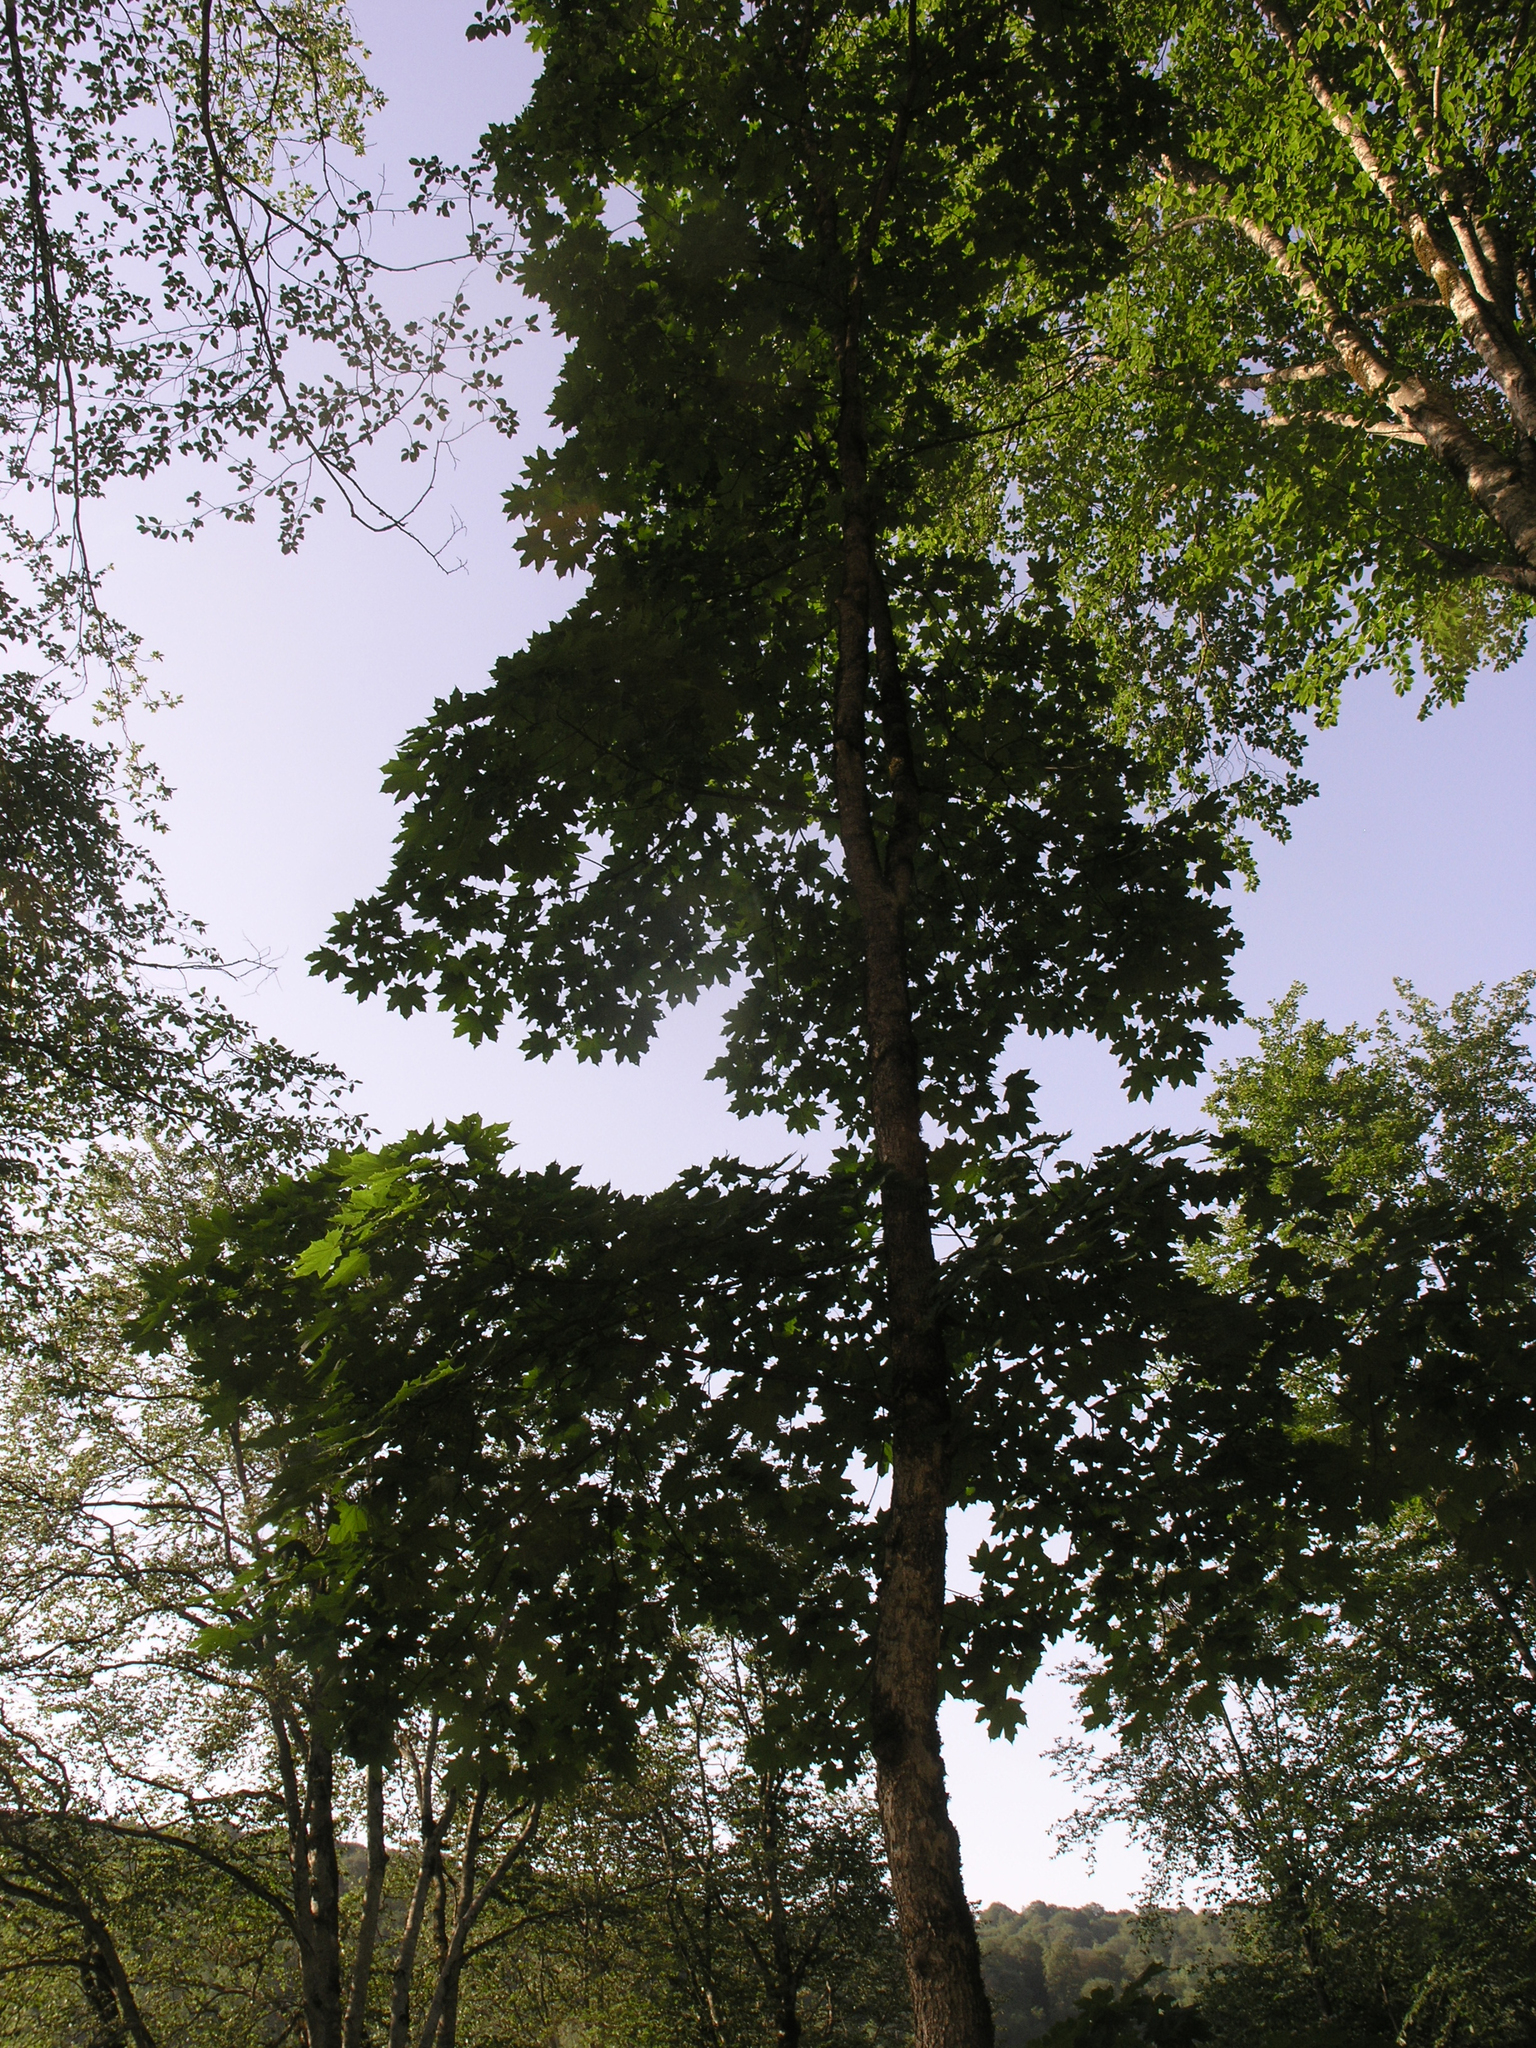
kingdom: Plantae
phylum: Tracheophyta
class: Magnoliopsida
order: Sapindales
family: Sapindaceae
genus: Acer
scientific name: Acer platanoides
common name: Norway maple
